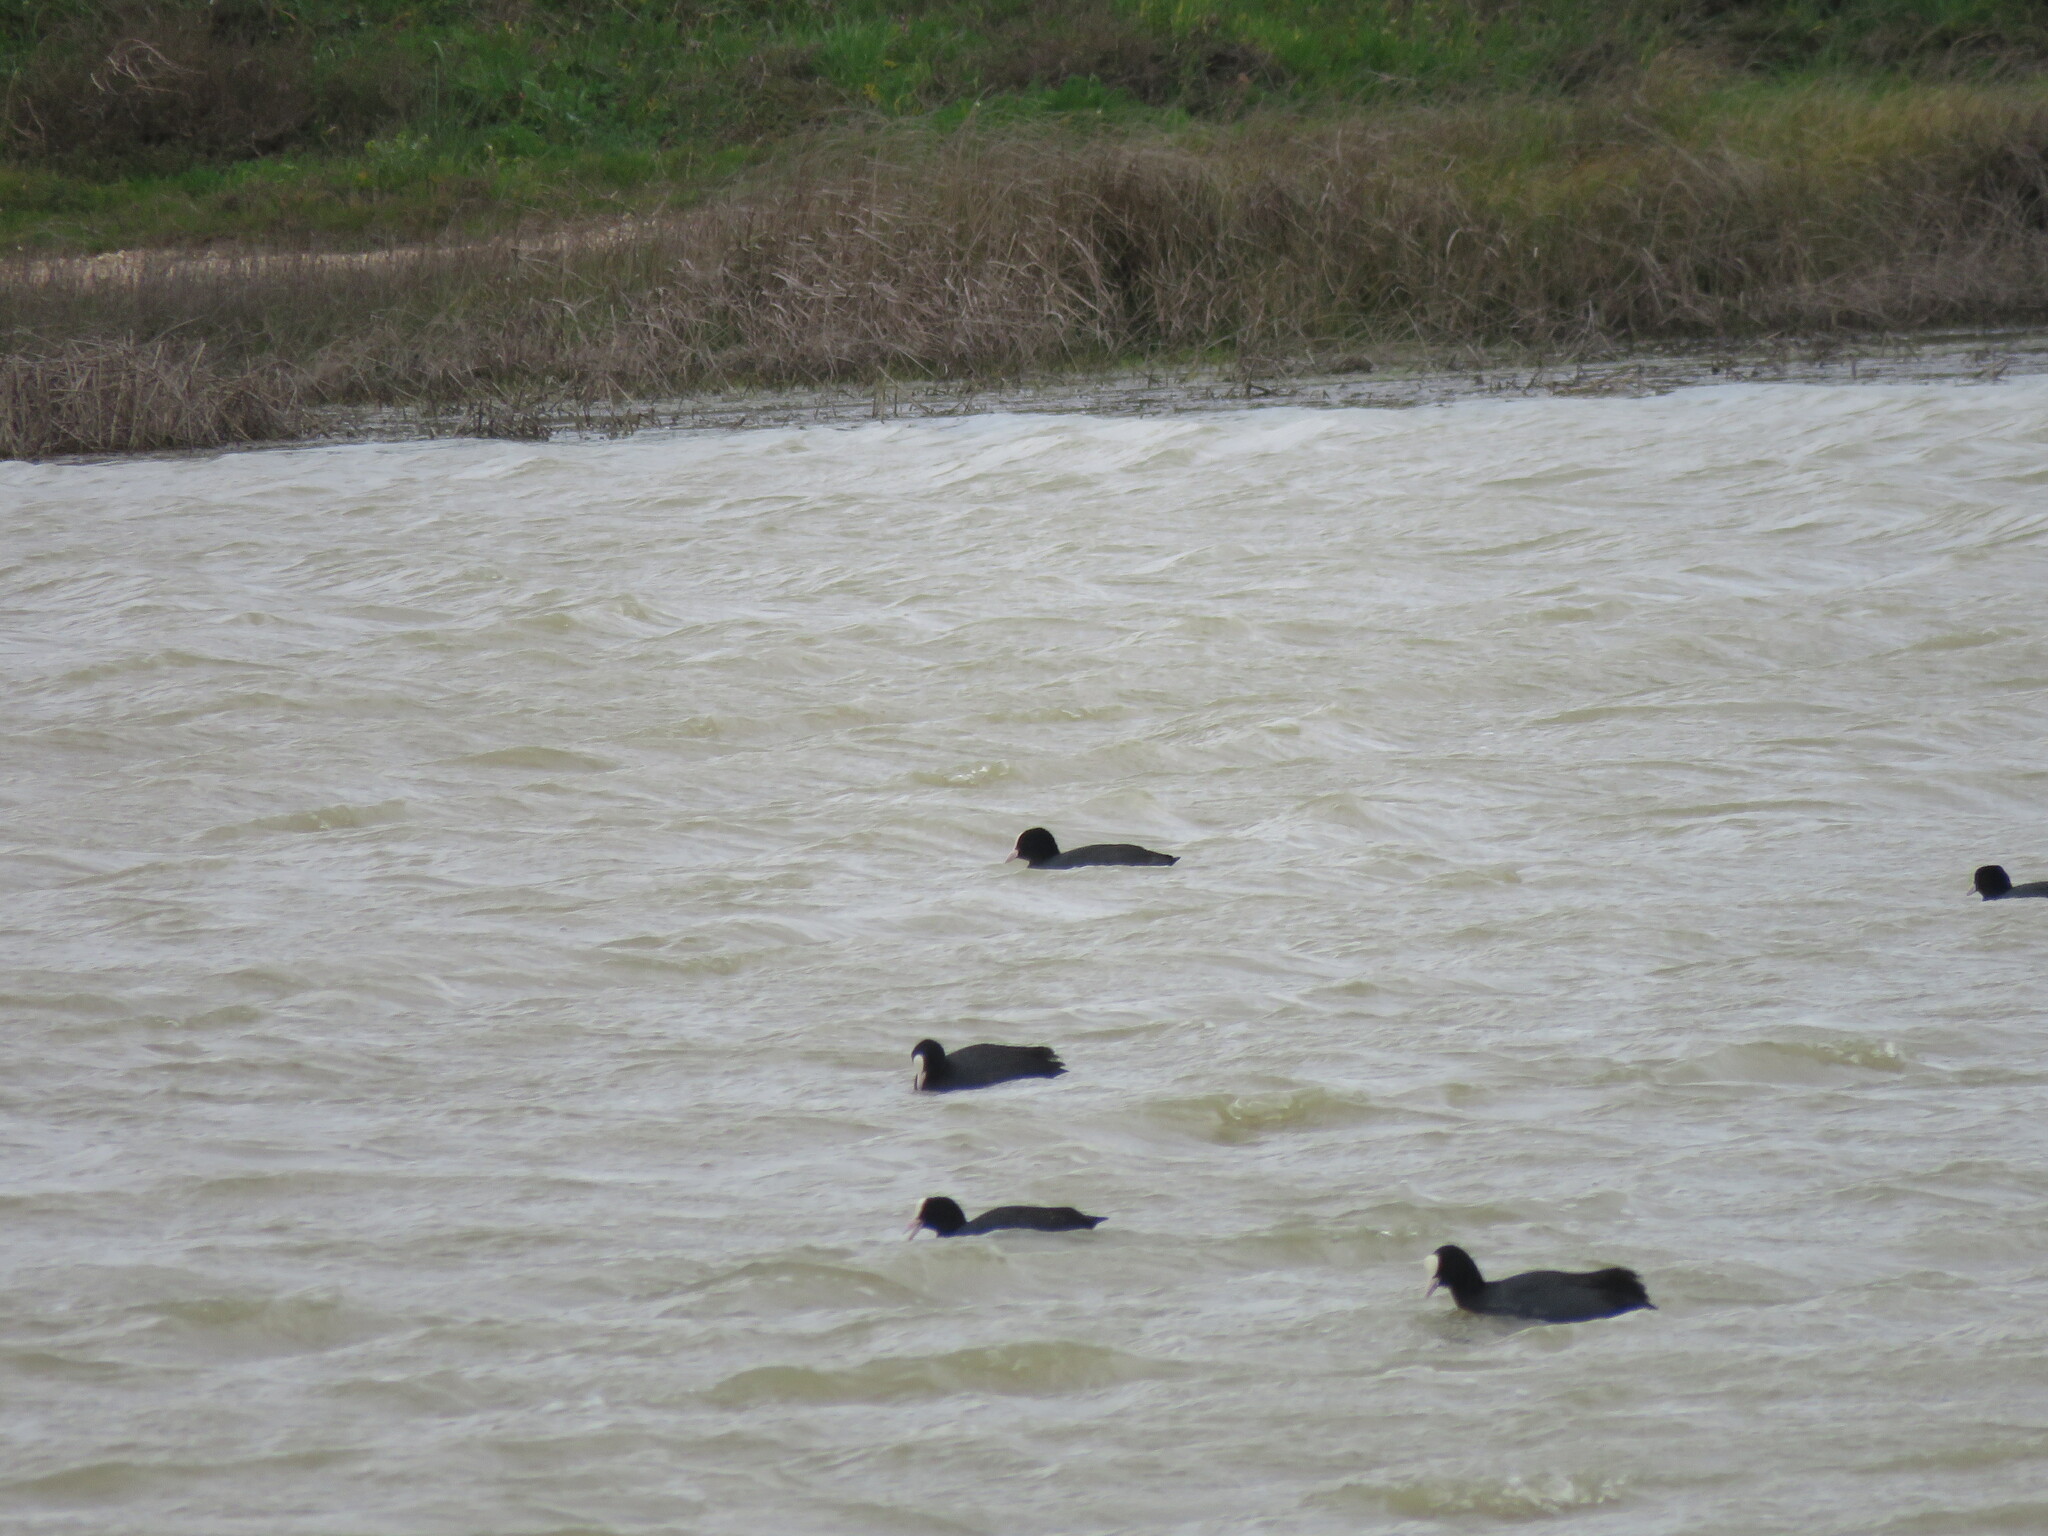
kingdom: Animalia
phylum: Chordata
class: Aves
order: Gruiformes
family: Rallidae
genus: Fulica
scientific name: Fulica atra
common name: Eurasian coot
